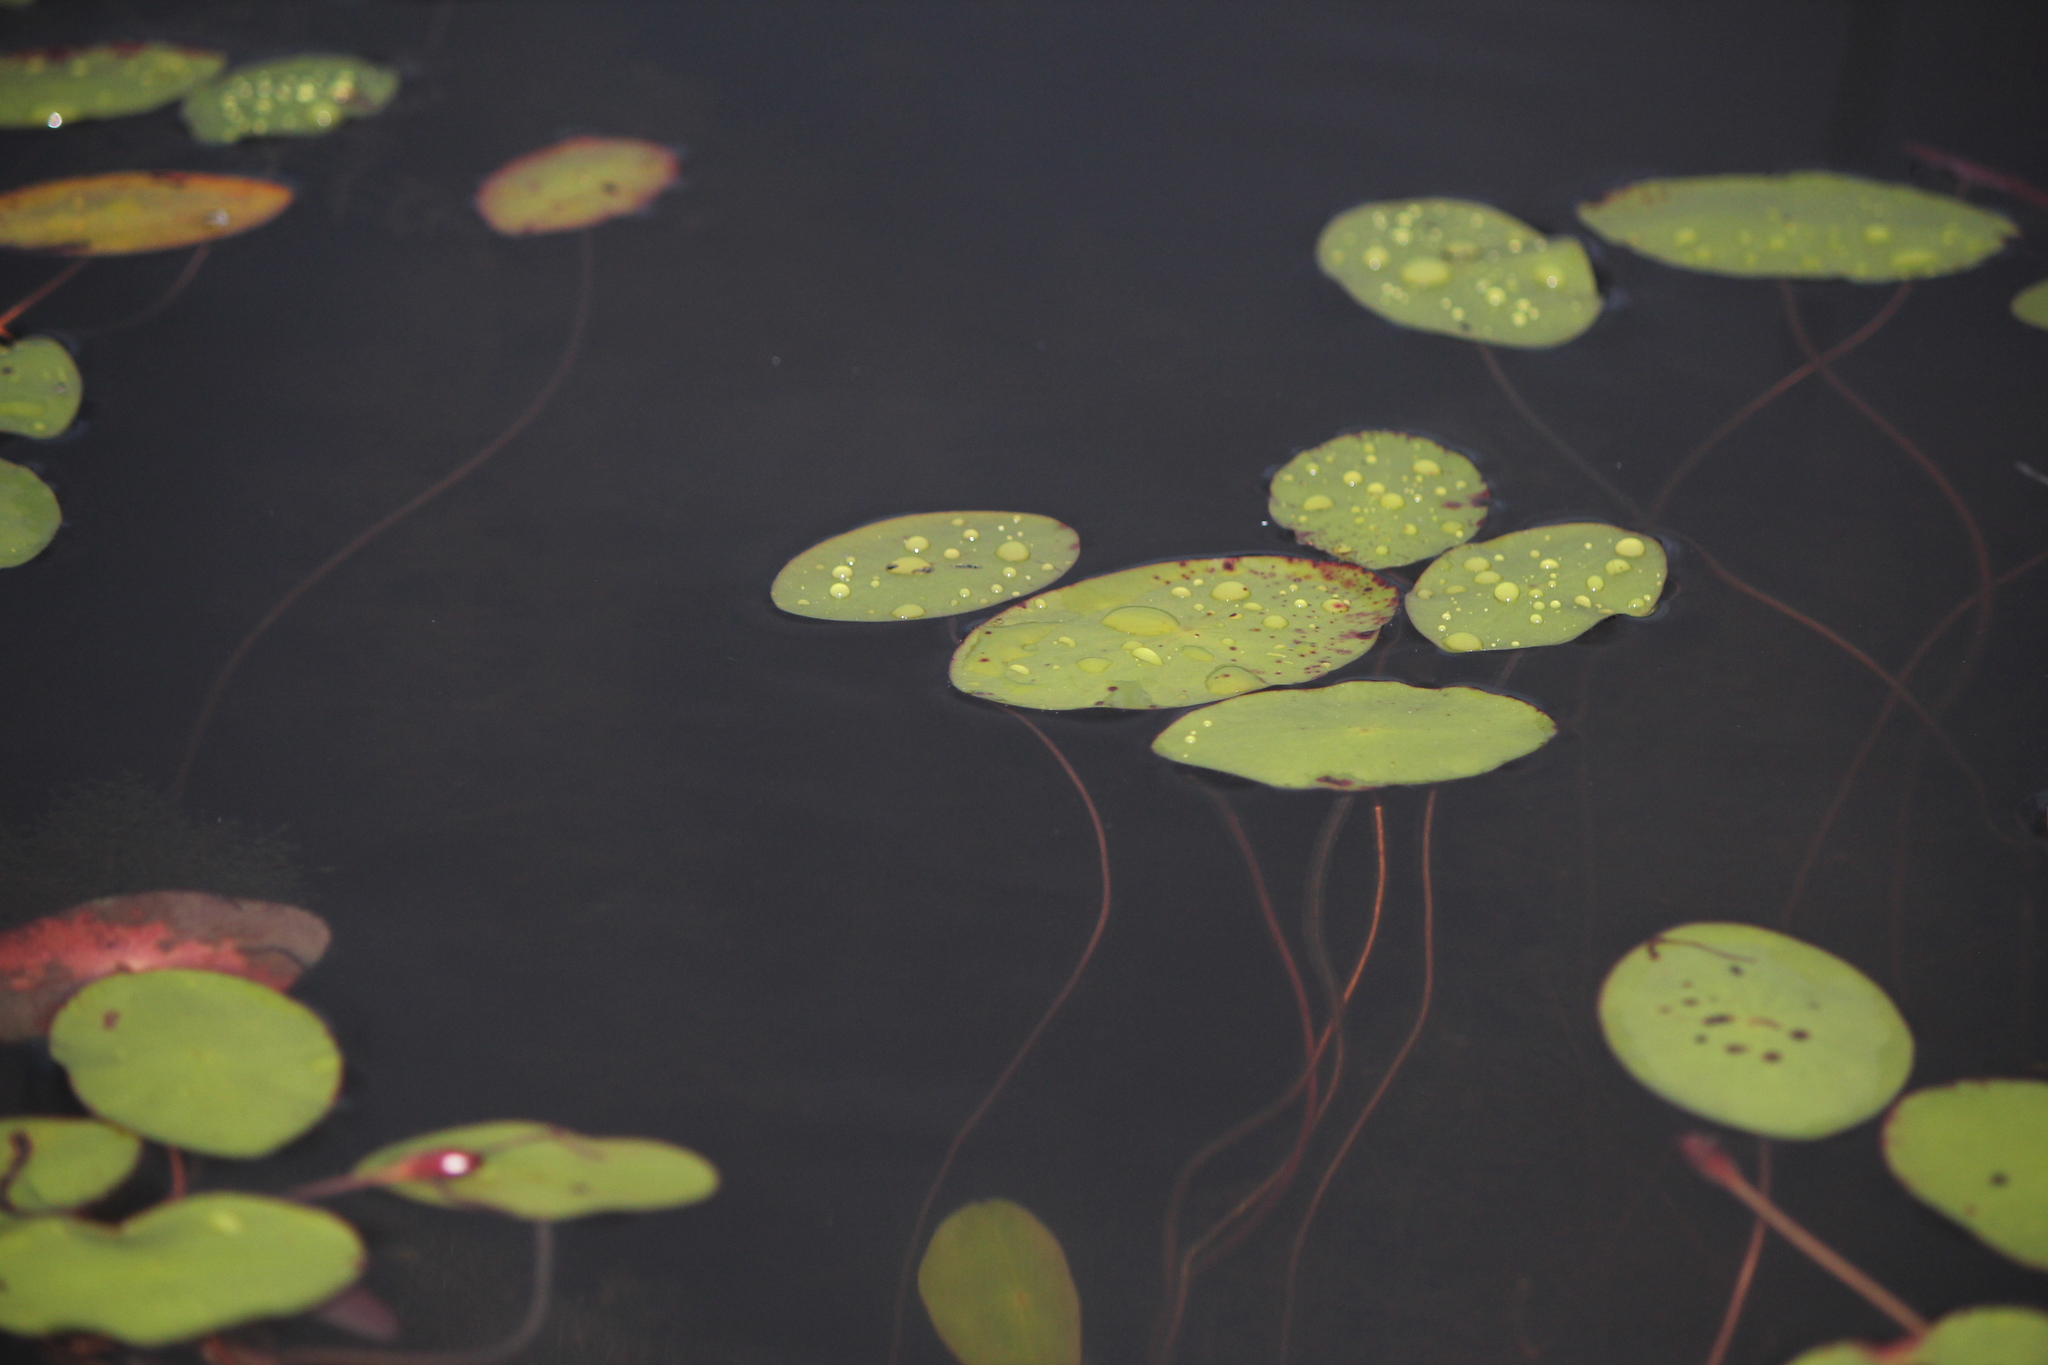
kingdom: Plantae
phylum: Tracheophyta
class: Magnoliopsida
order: Nymphaeales
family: Cabombaceae
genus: Brasenia
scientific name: Brasenia schreberi
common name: Water-shield
